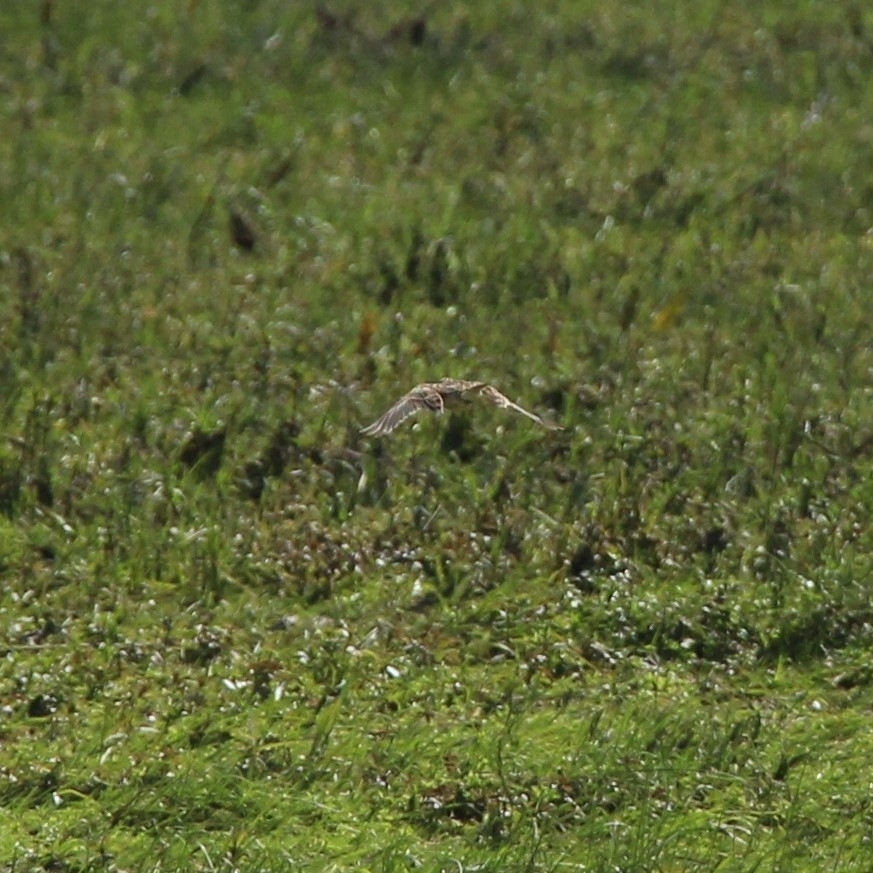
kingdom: Animalia
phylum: Chordata
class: Aves
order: Passeriformes
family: Alaudidae
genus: Alauda
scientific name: Alauda arvensis
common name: Eurasian skylark
